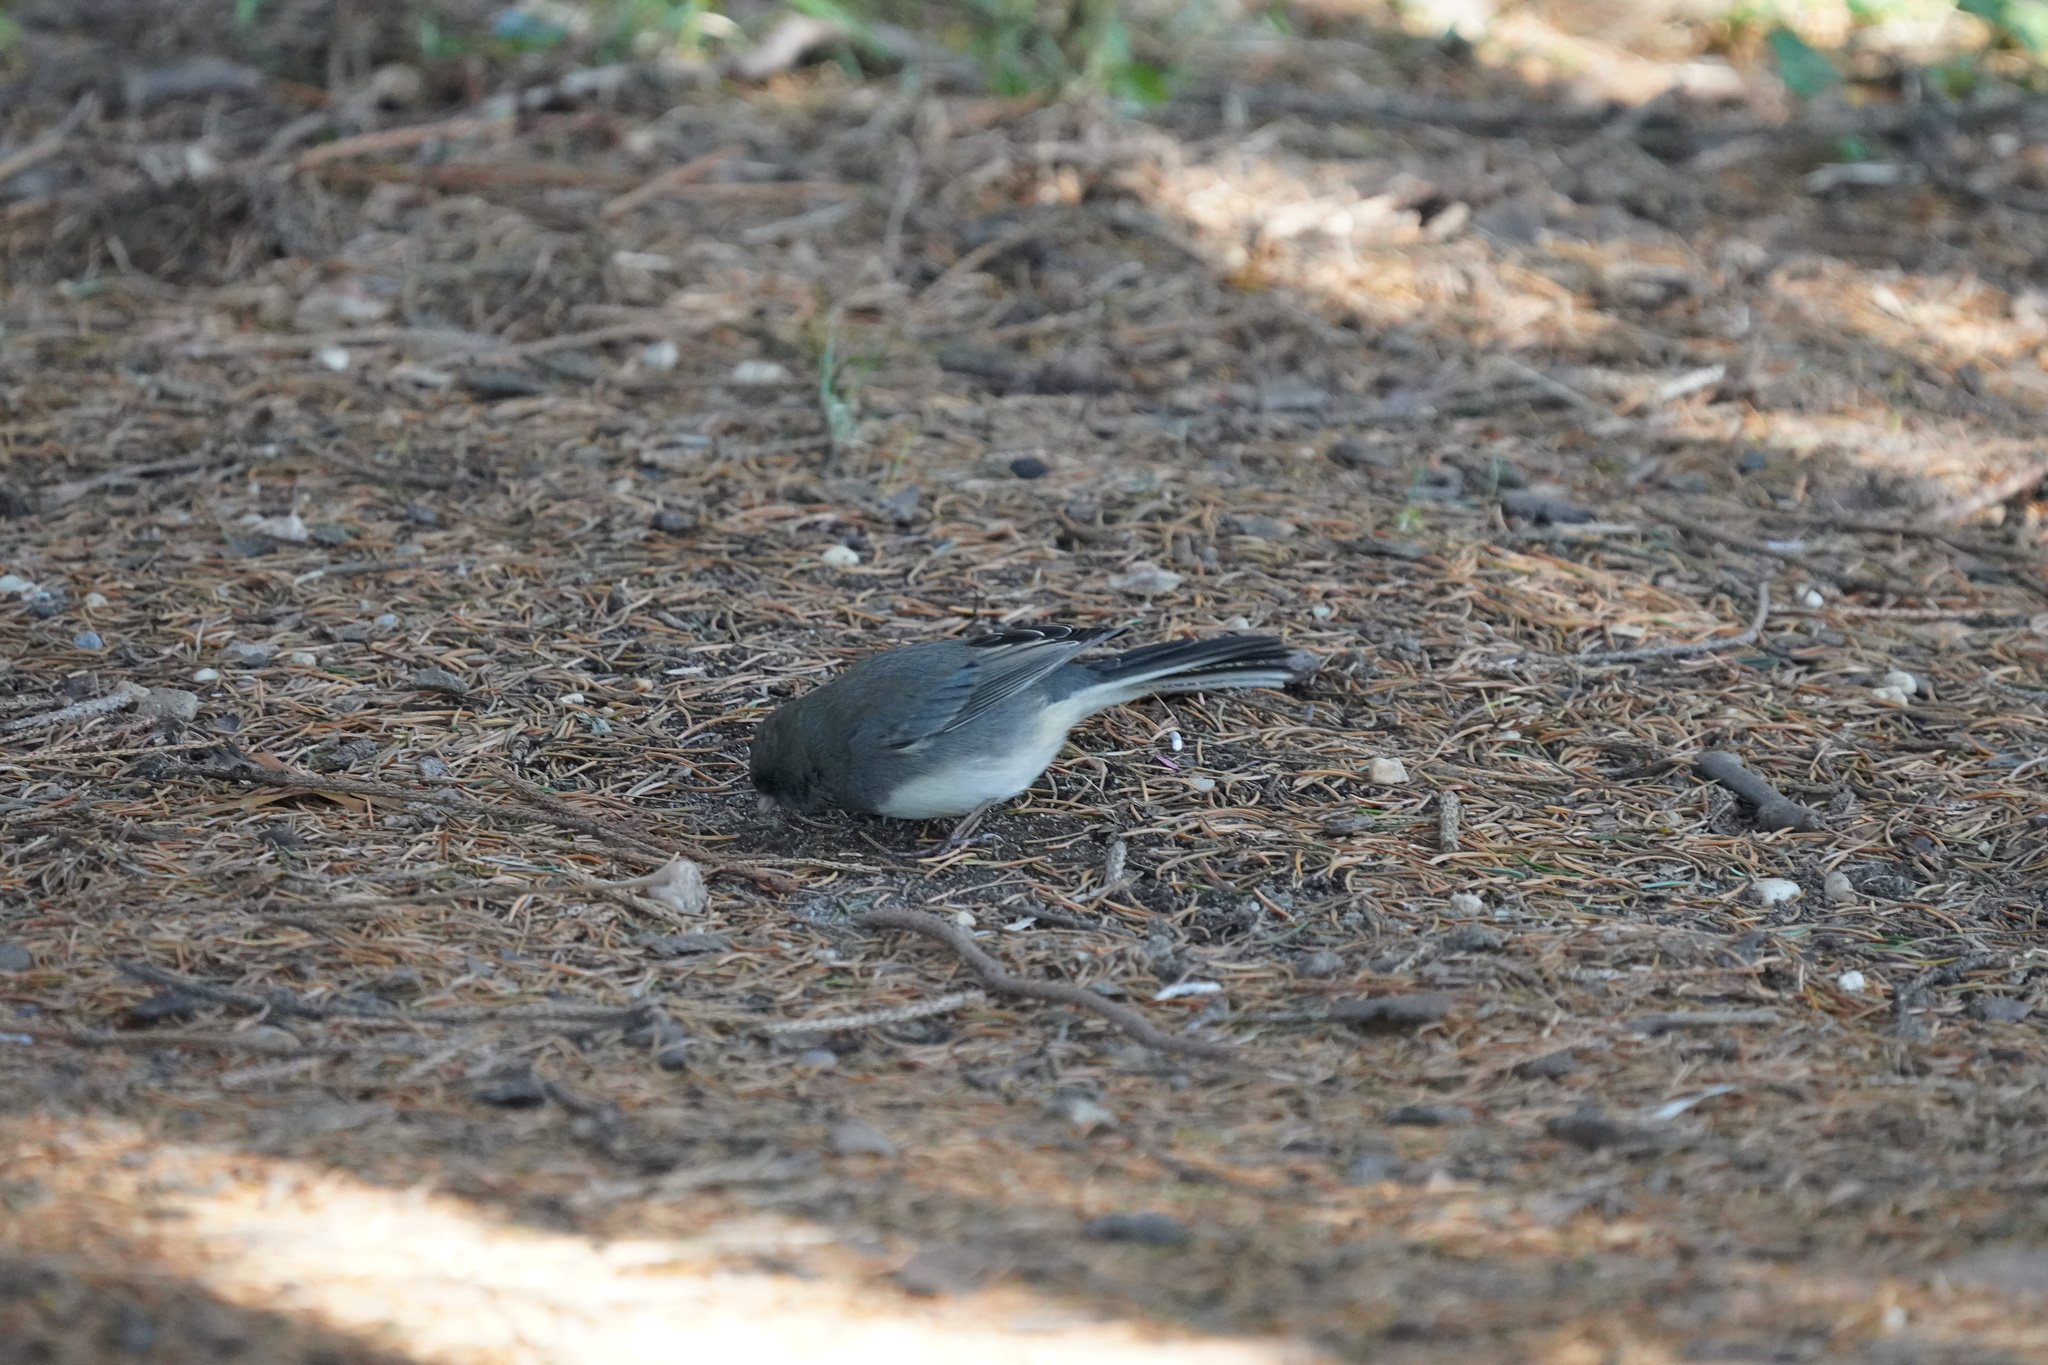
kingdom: Animalia
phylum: Chordata
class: Aves
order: Passeriformes
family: Passerellidae
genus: Junco
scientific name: Junco hyemalis
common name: Dark-eyed junco
